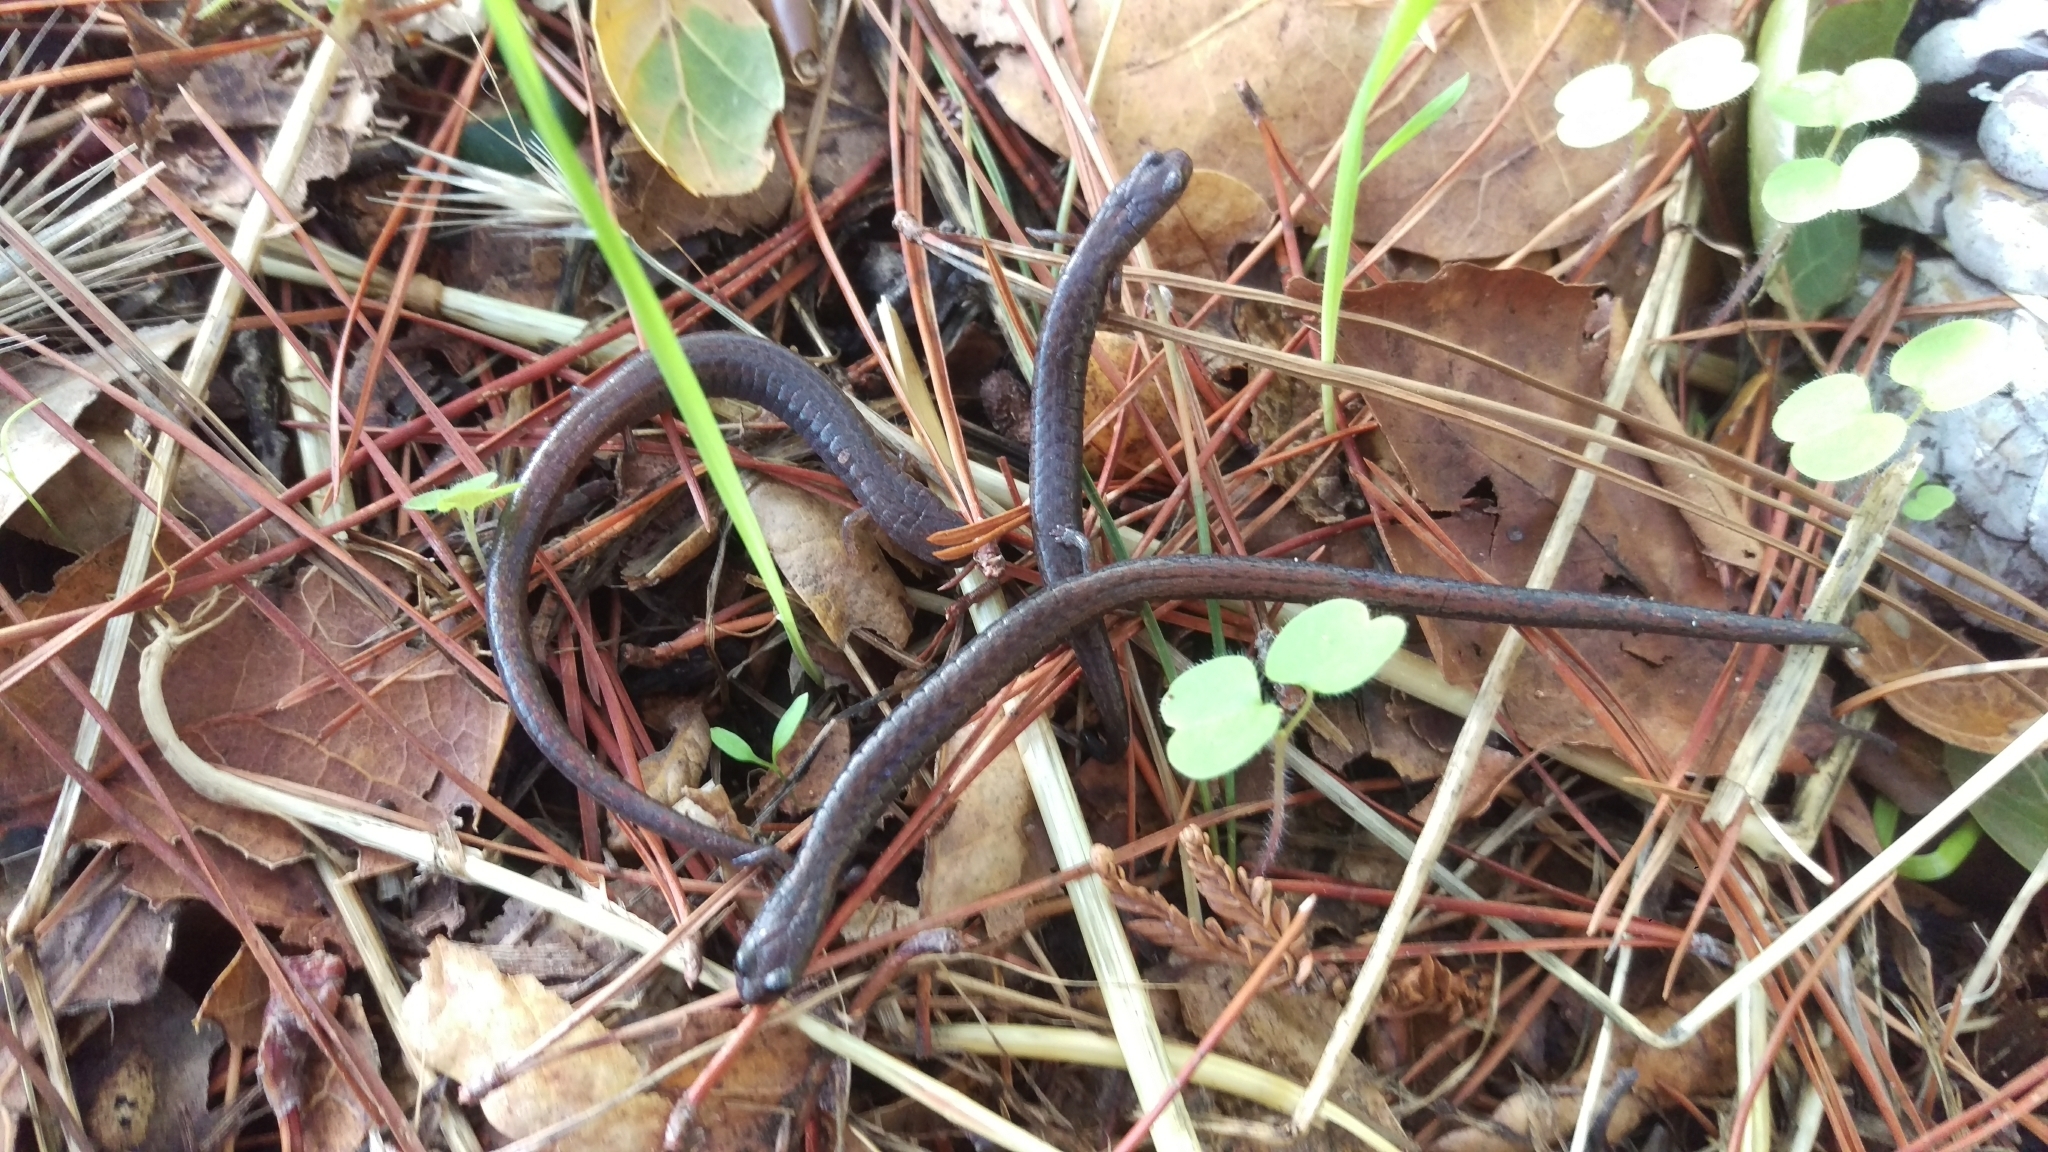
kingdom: Animalia
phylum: Chordata
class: Amphibia
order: Caudata
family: Plethodontidae
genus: Batrachoseps
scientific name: Batrachoseps attenuatus
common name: California slender salamander
